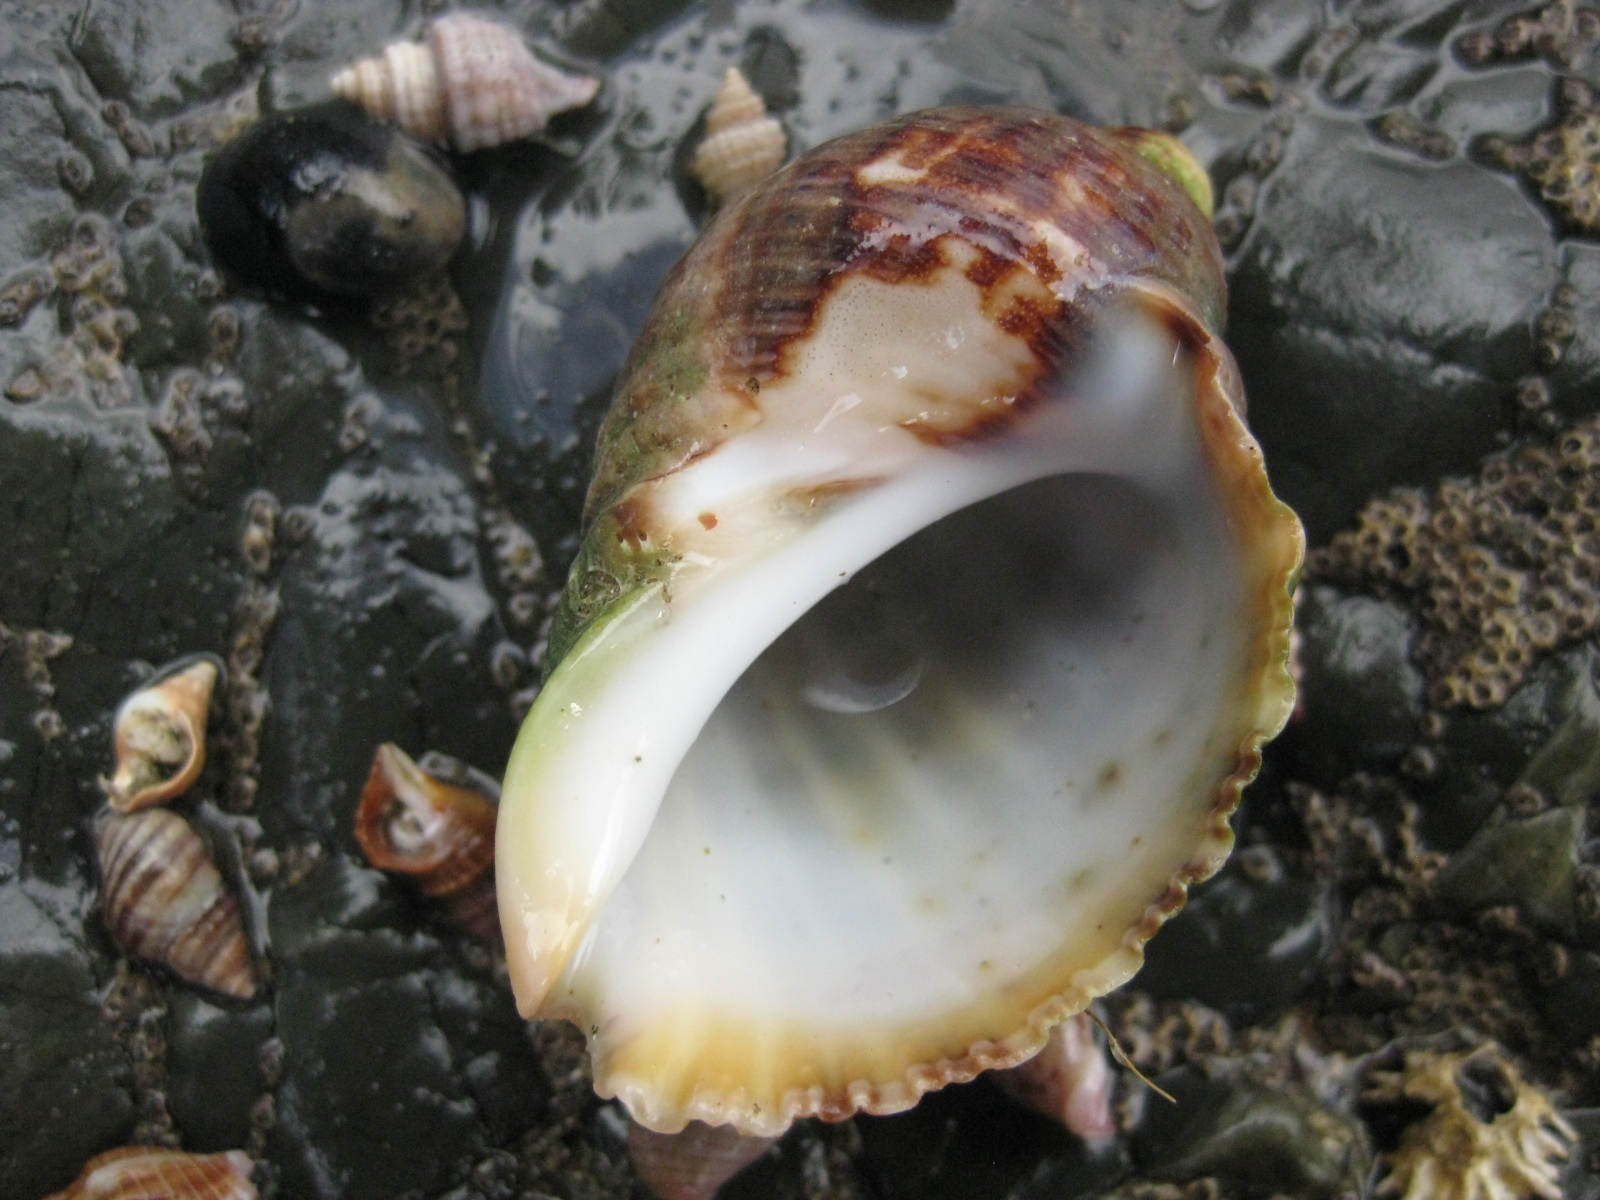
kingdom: Animalia
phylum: Mollusca
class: Gastropoda
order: Neogastropoda
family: Muricidae
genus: Dicathais
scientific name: Dicathais orbita
